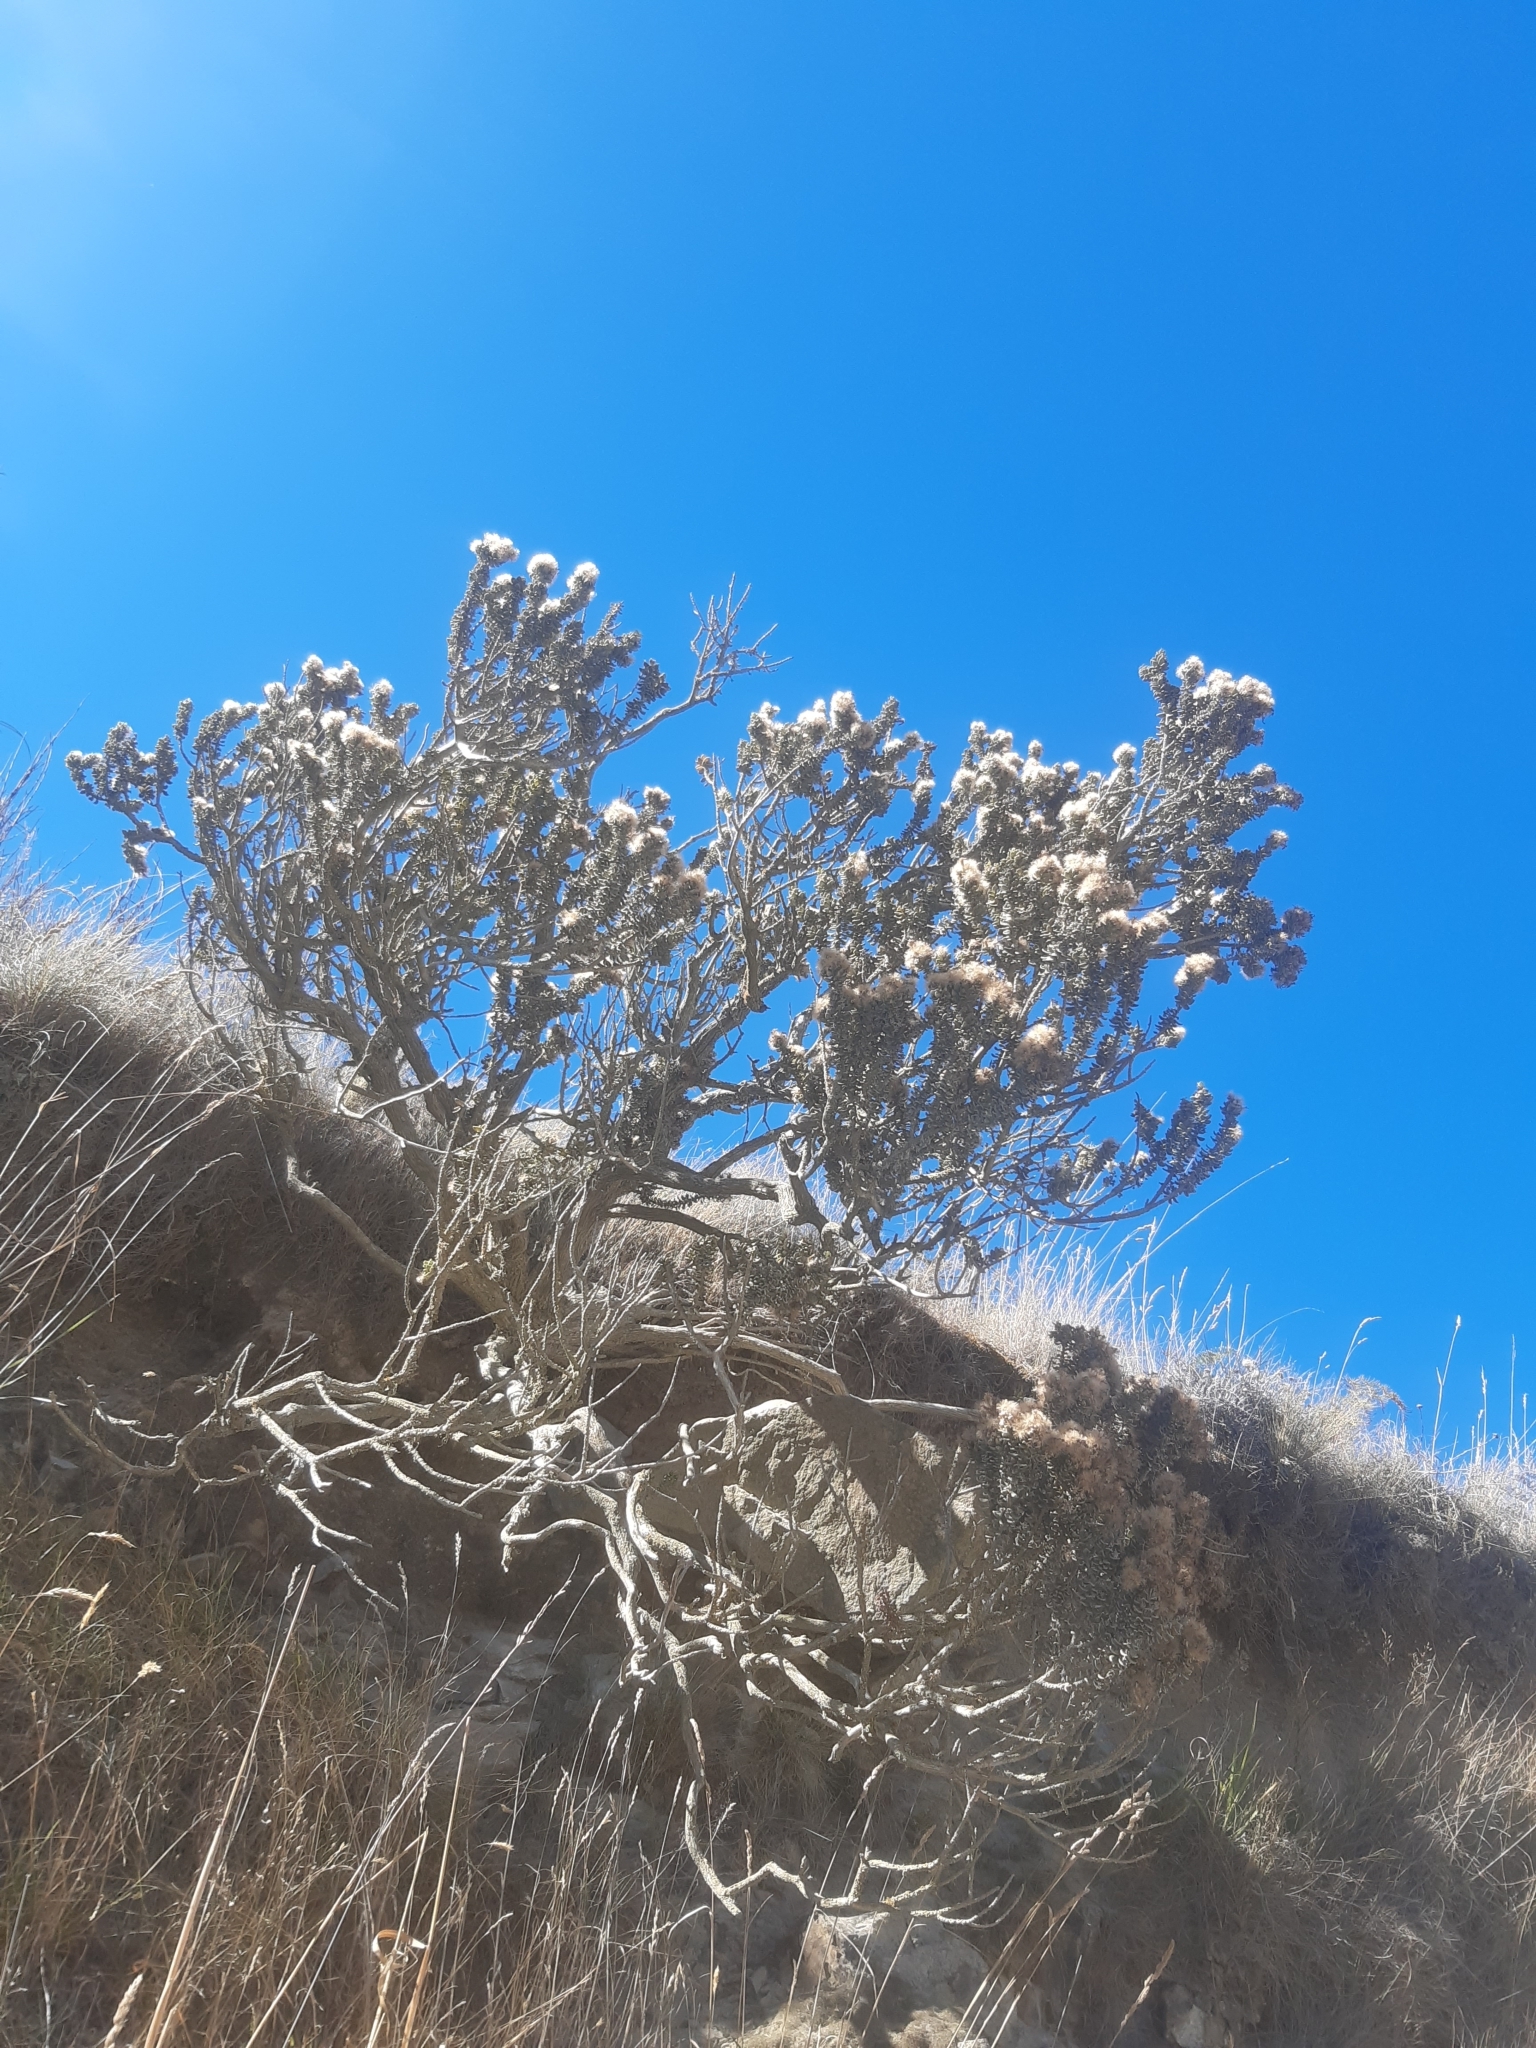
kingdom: Plantae
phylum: Tracheophyta
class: Magnoliopsida
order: Asterales
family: Asteraceae
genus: Olearia
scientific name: Olearia nummularifolia
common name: Sticky daisybush
